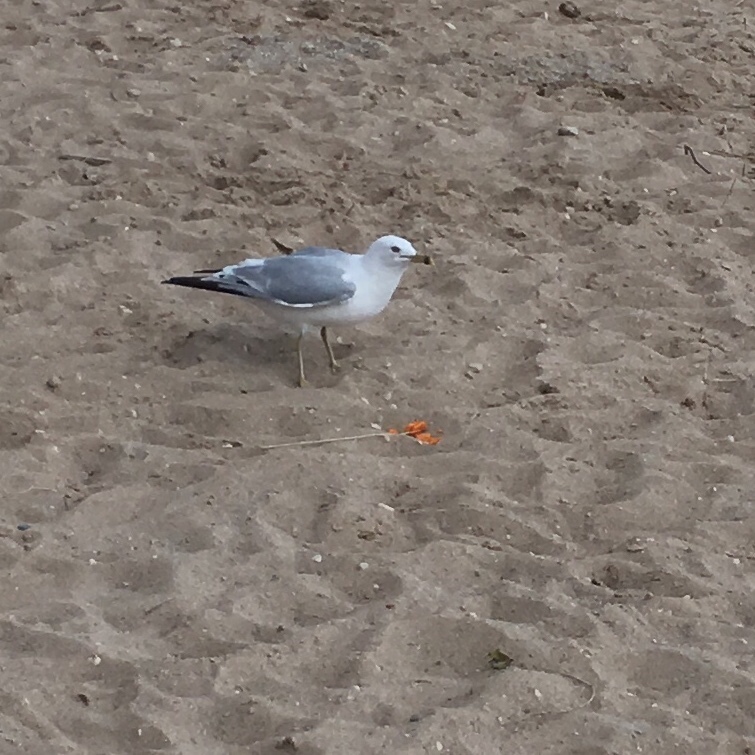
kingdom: Animalia
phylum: Chordata
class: Aves
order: Charadriiformes
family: Laridae
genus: Larus
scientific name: Larus delawarensis
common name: Ring-billed gull
